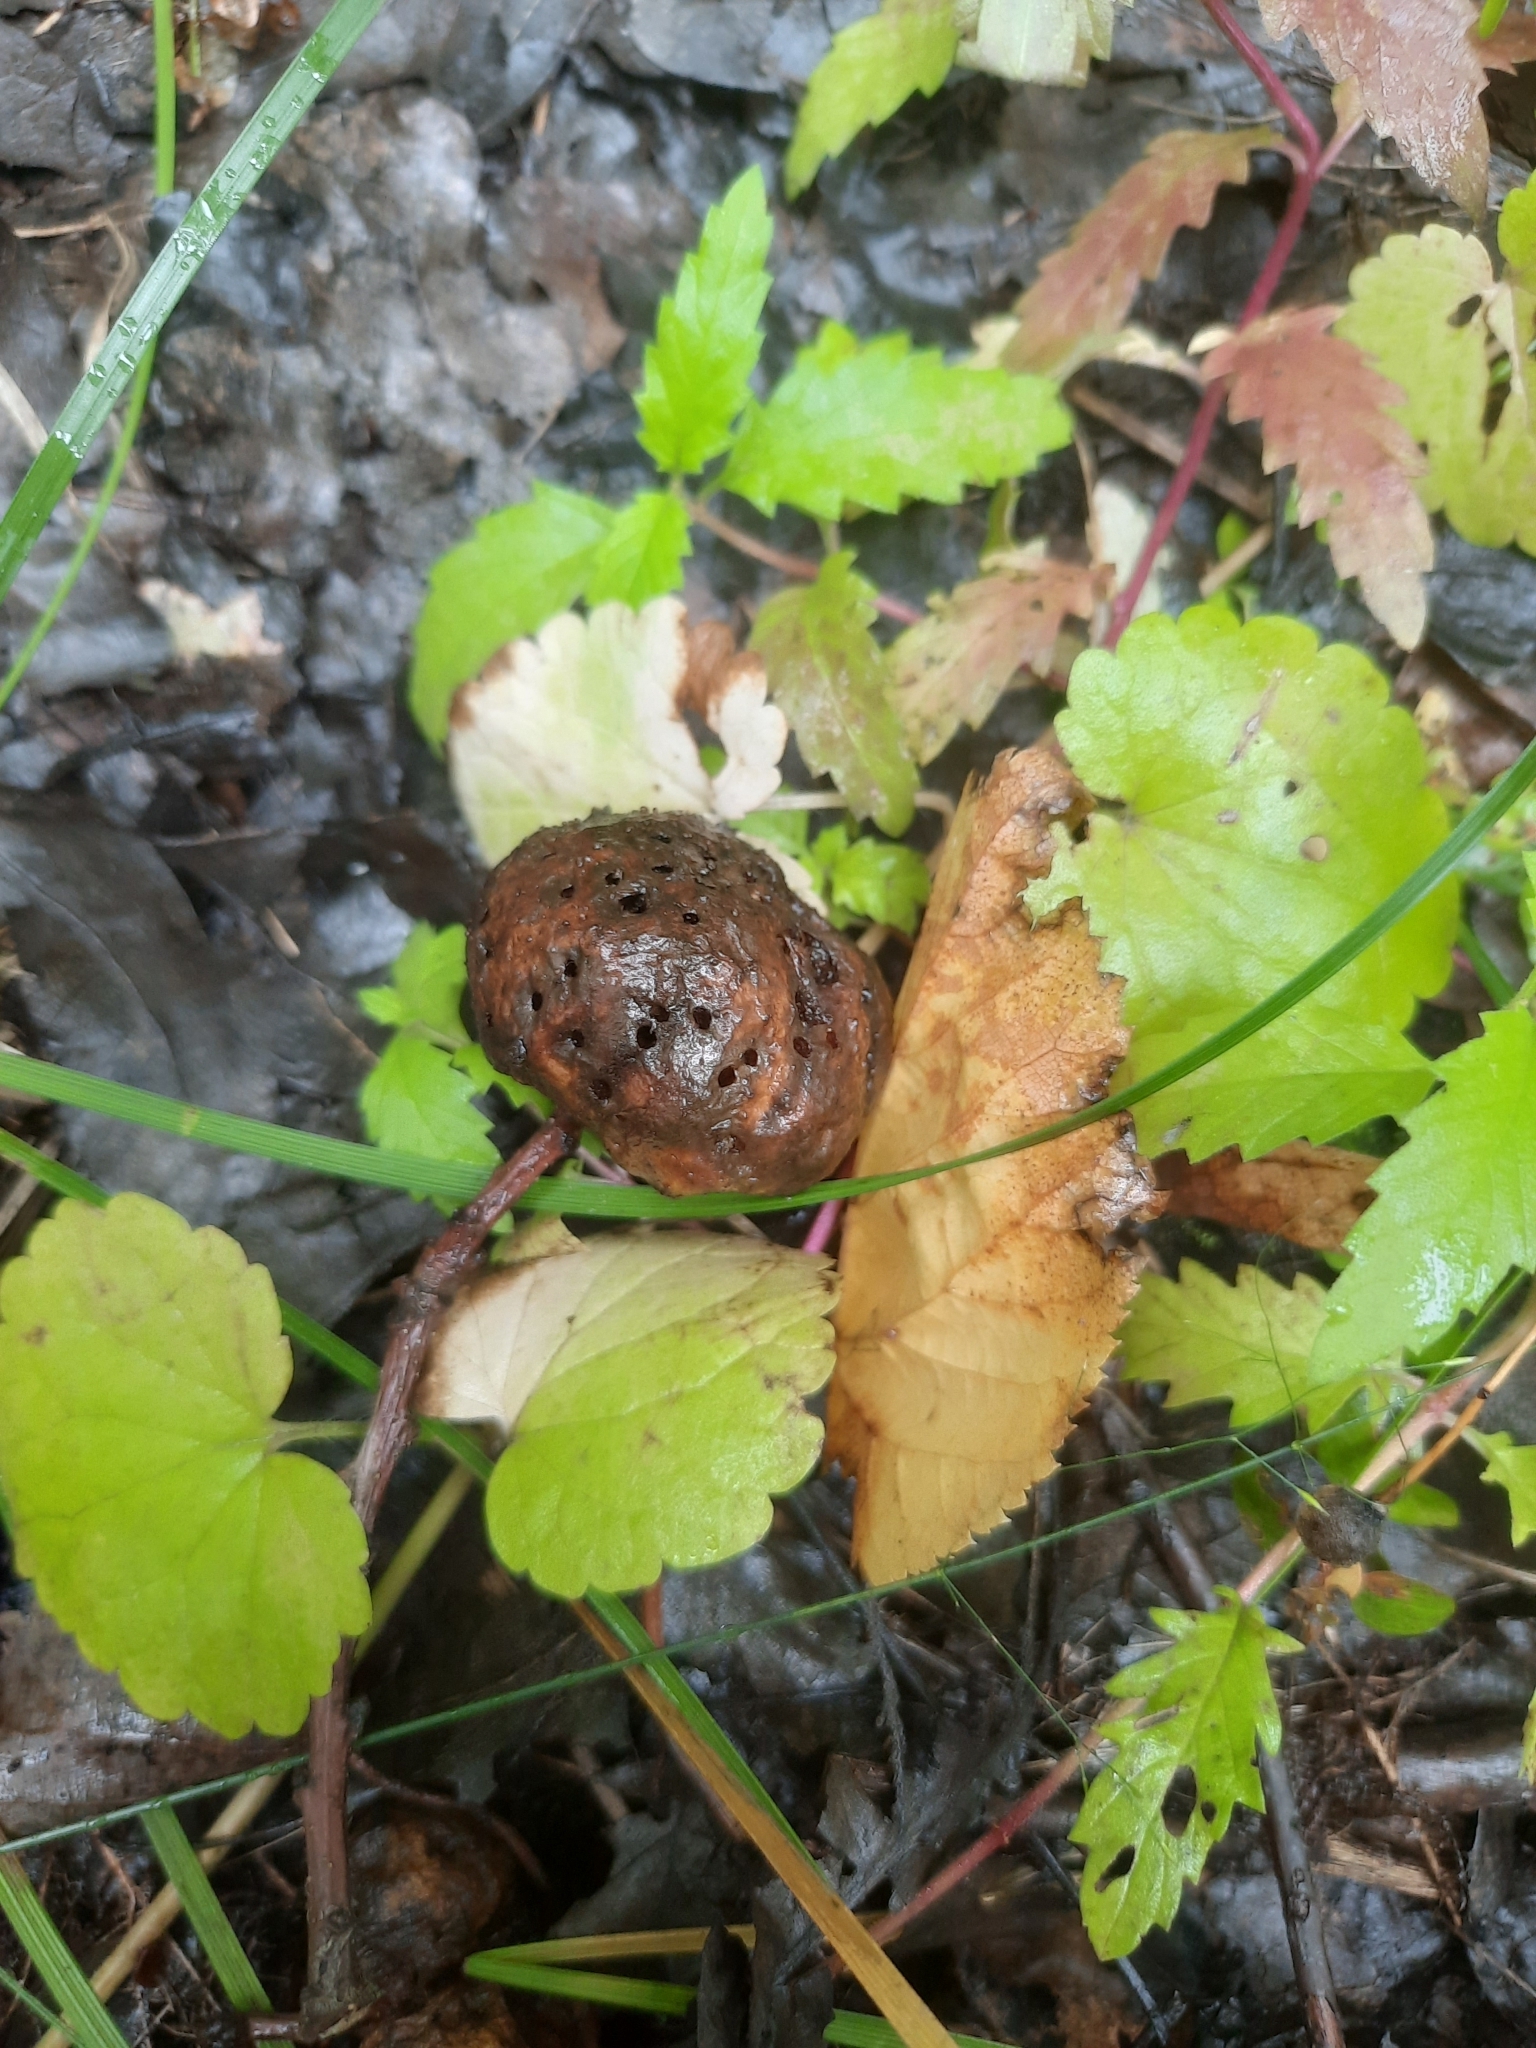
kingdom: Animalia
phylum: Arthropoda
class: Insecta
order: Hymenoptera
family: Cynipidae
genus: Biorhiza
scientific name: Biorhiza pallida
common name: Oak apple
